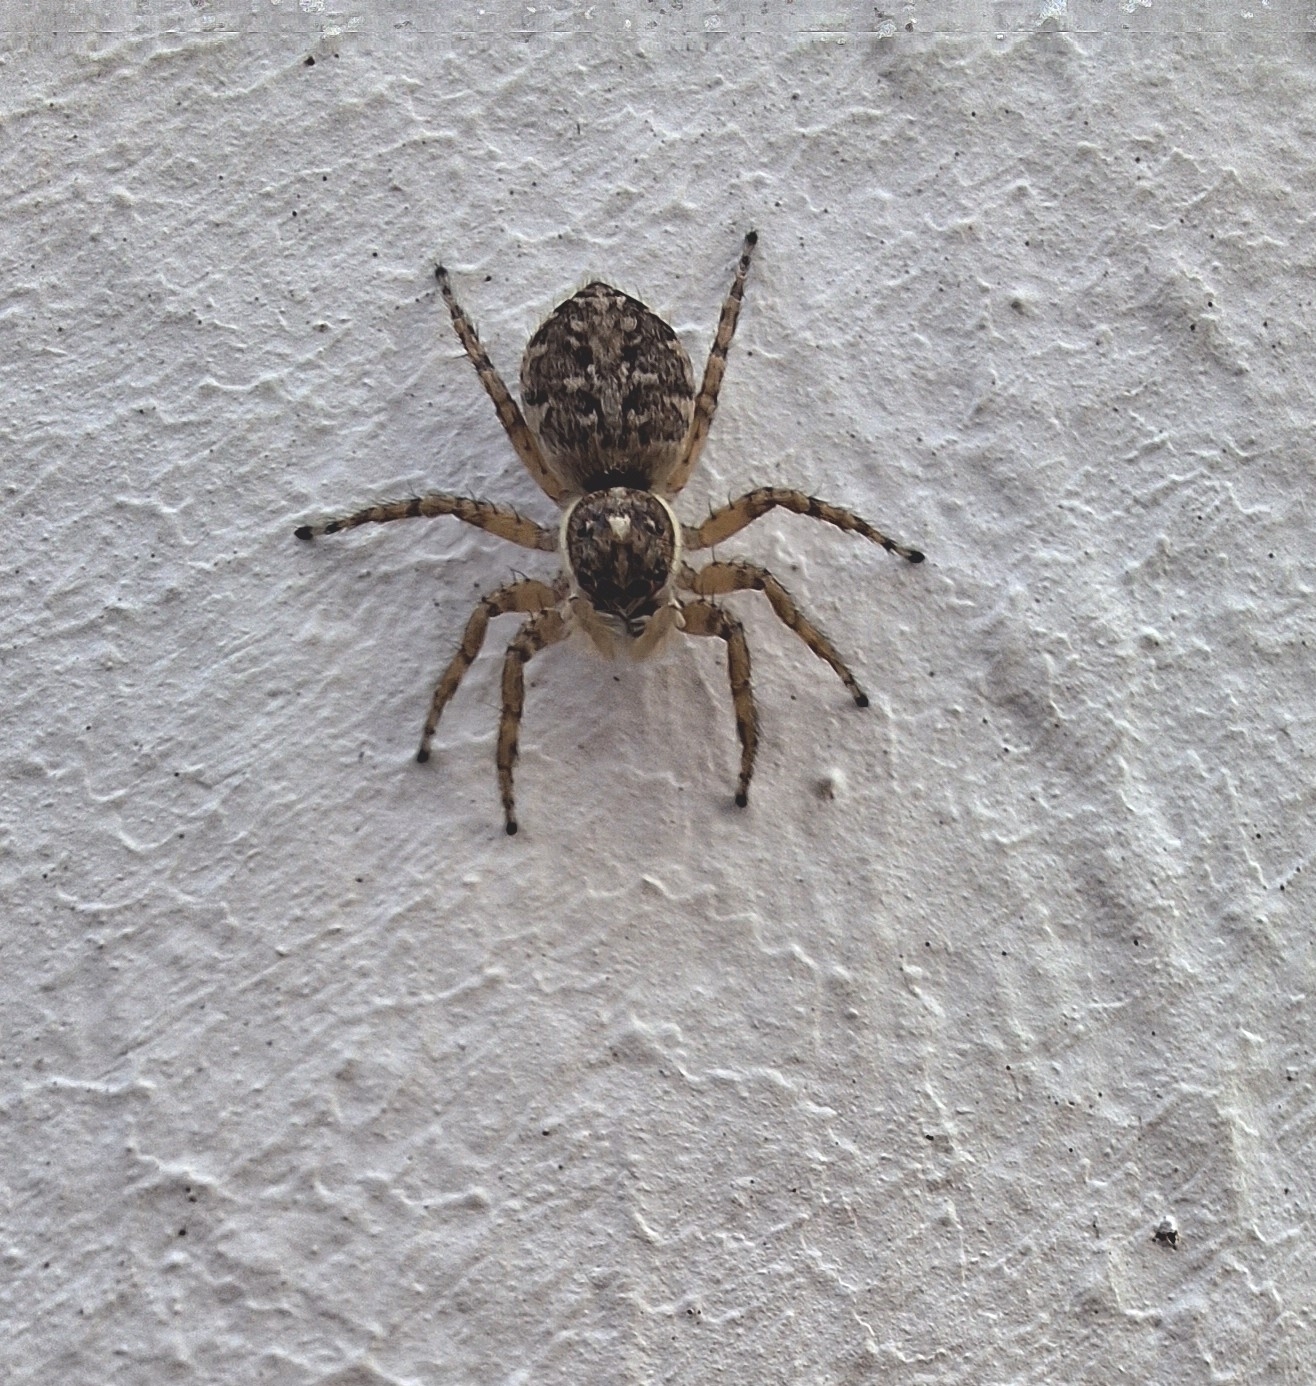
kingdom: Animalia
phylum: Arthropoda
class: Arachnida
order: Araneae
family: Salticidae
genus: Menemerus
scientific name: Menemerus semilimbatus
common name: Jumping spider
